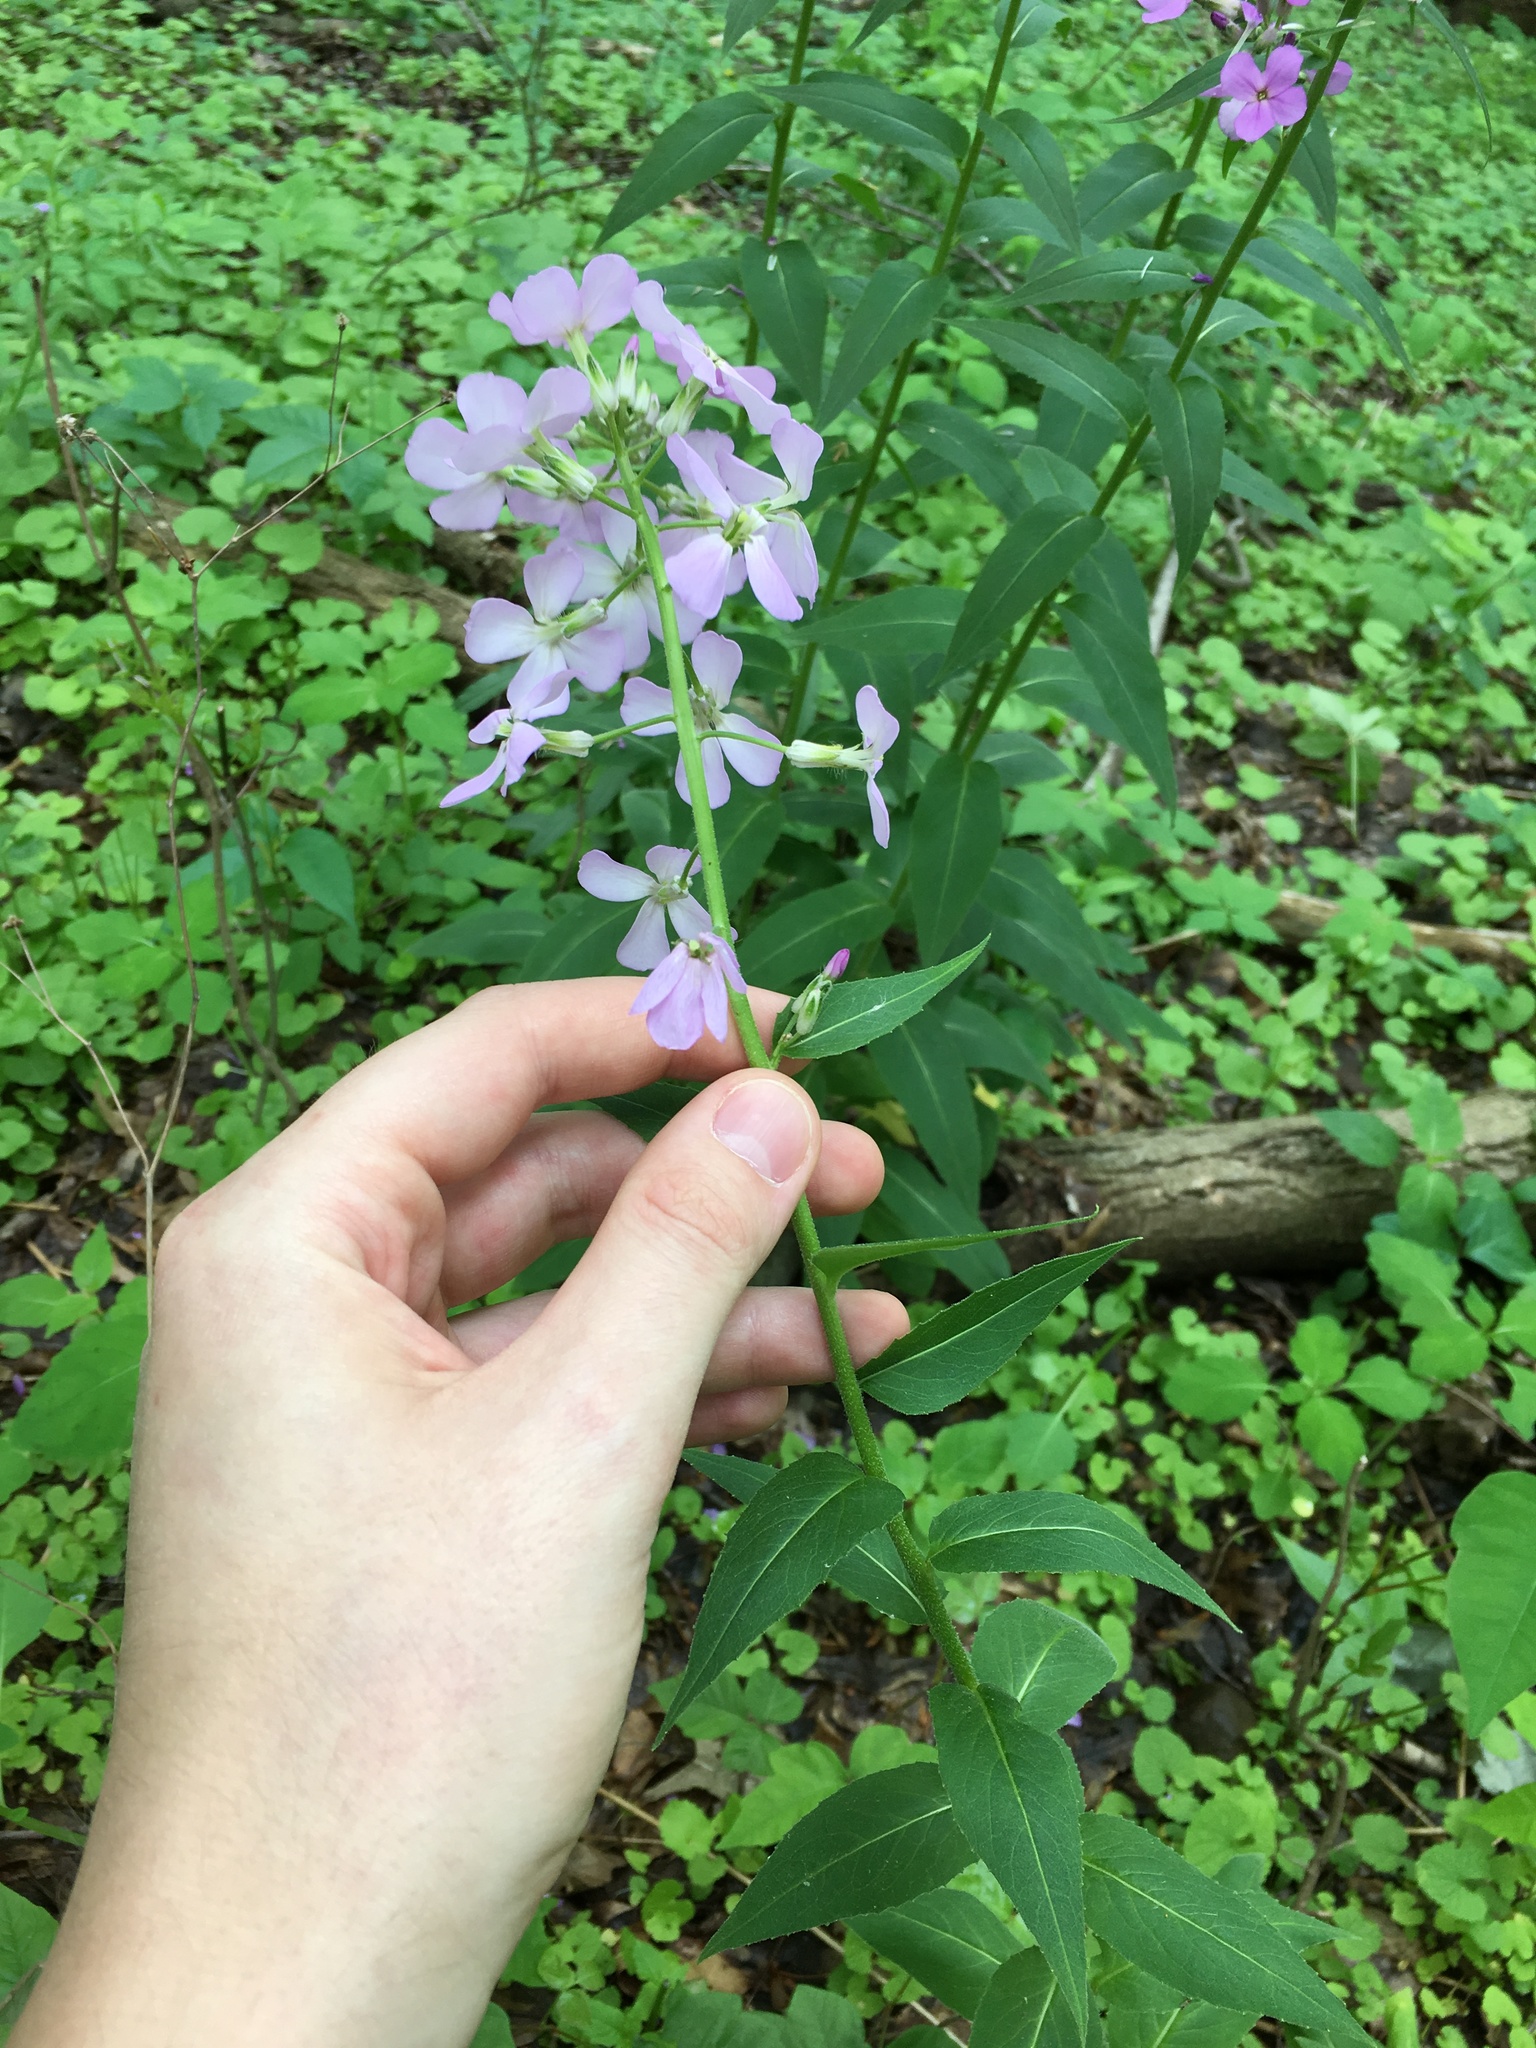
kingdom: Plantae
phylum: Tracheophyta
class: Magnoliopsida
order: Brassicales
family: Brassicaceae
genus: Hesperis
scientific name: Hesperis matronalis
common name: Dame's-violet
